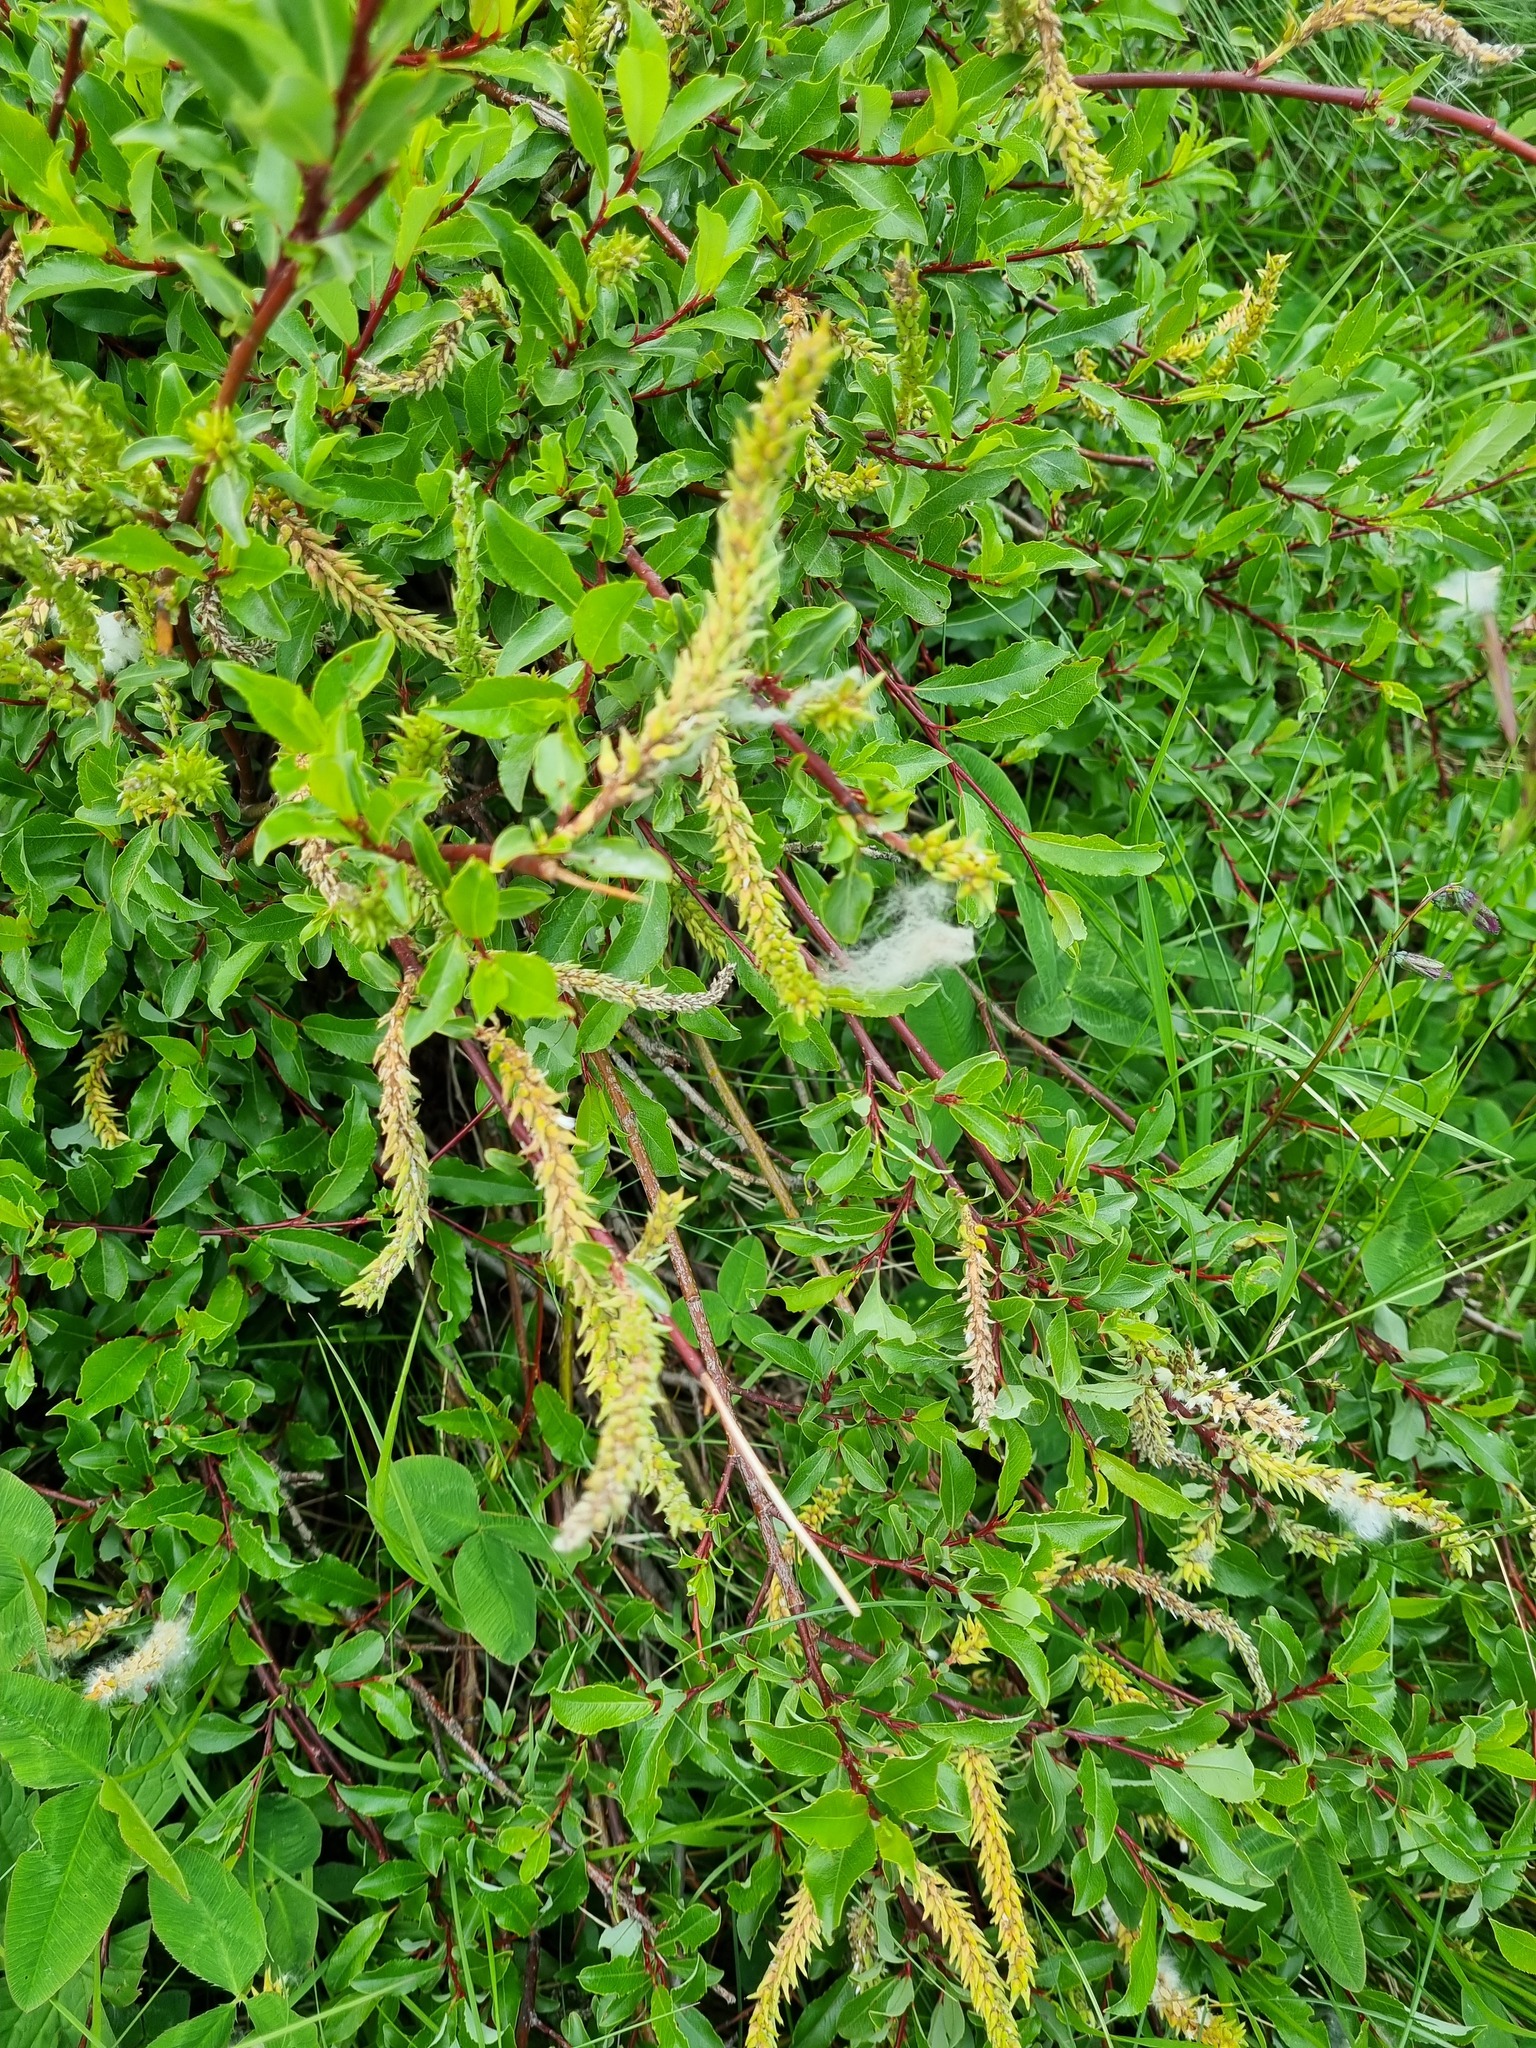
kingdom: Plantae
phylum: Tracheophyta
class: Magnoliopsida
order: Malpighiales
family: Salicaceae
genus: Salix
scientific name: Salix kazbekensis
